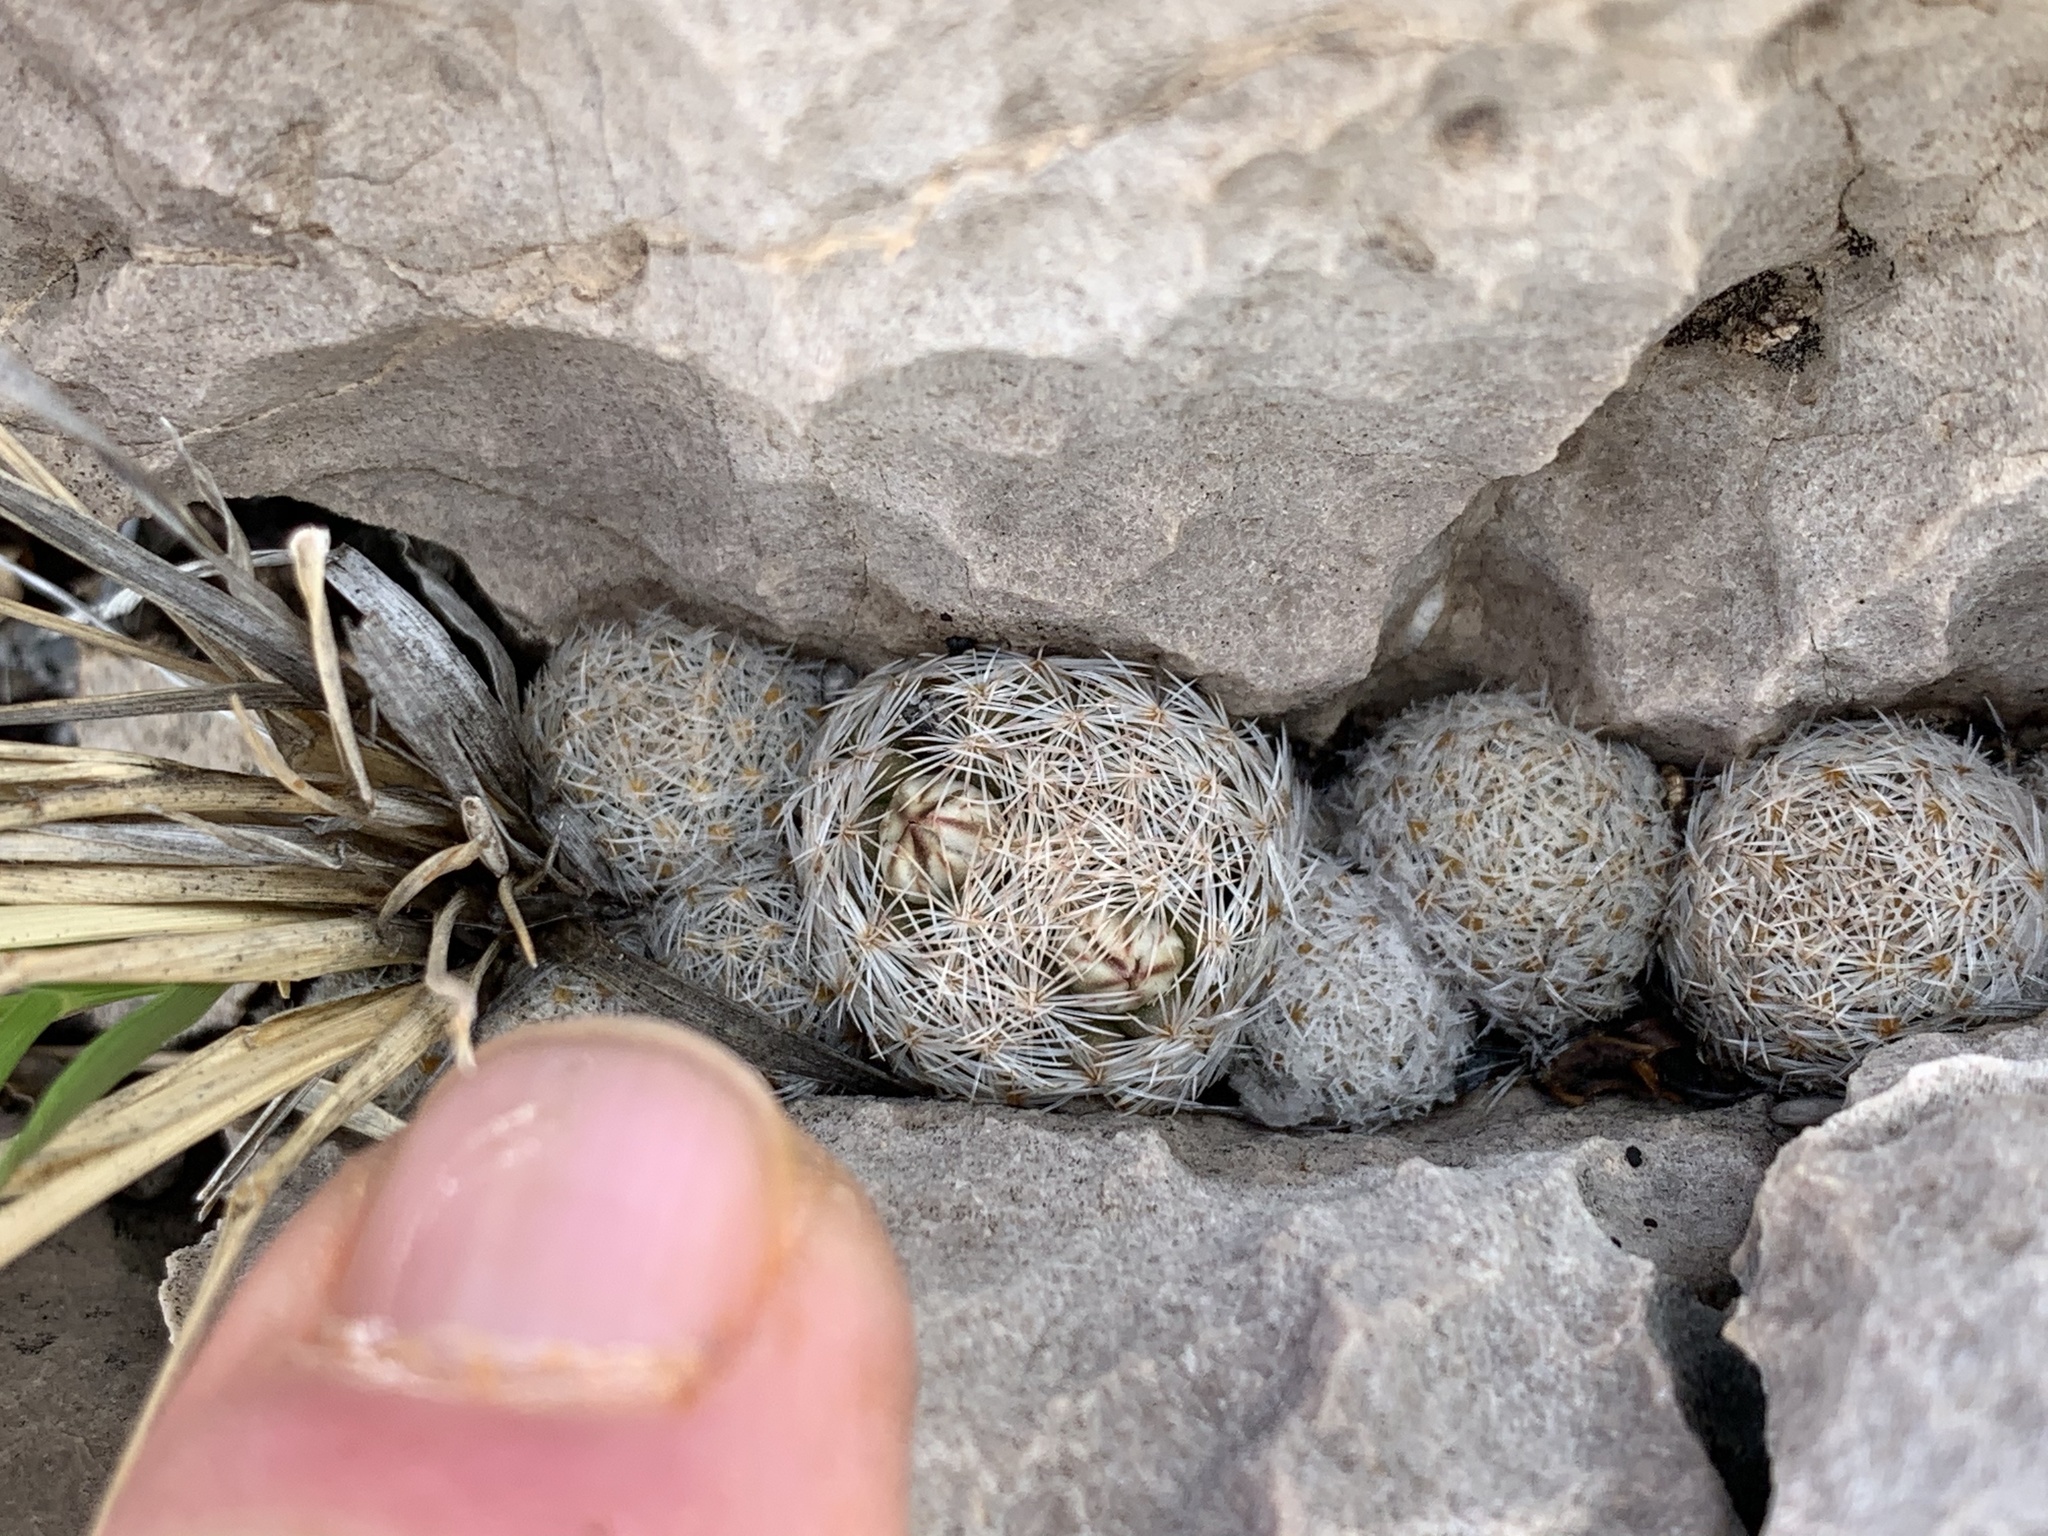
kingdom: Plantae
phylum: Tracheophyta
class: Magnoliopsida
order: Caryophyllales
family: Cactaceae
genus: Mammillaria
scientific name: Mammillaria lasiacantha
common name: Lace-spine nipple cactus
